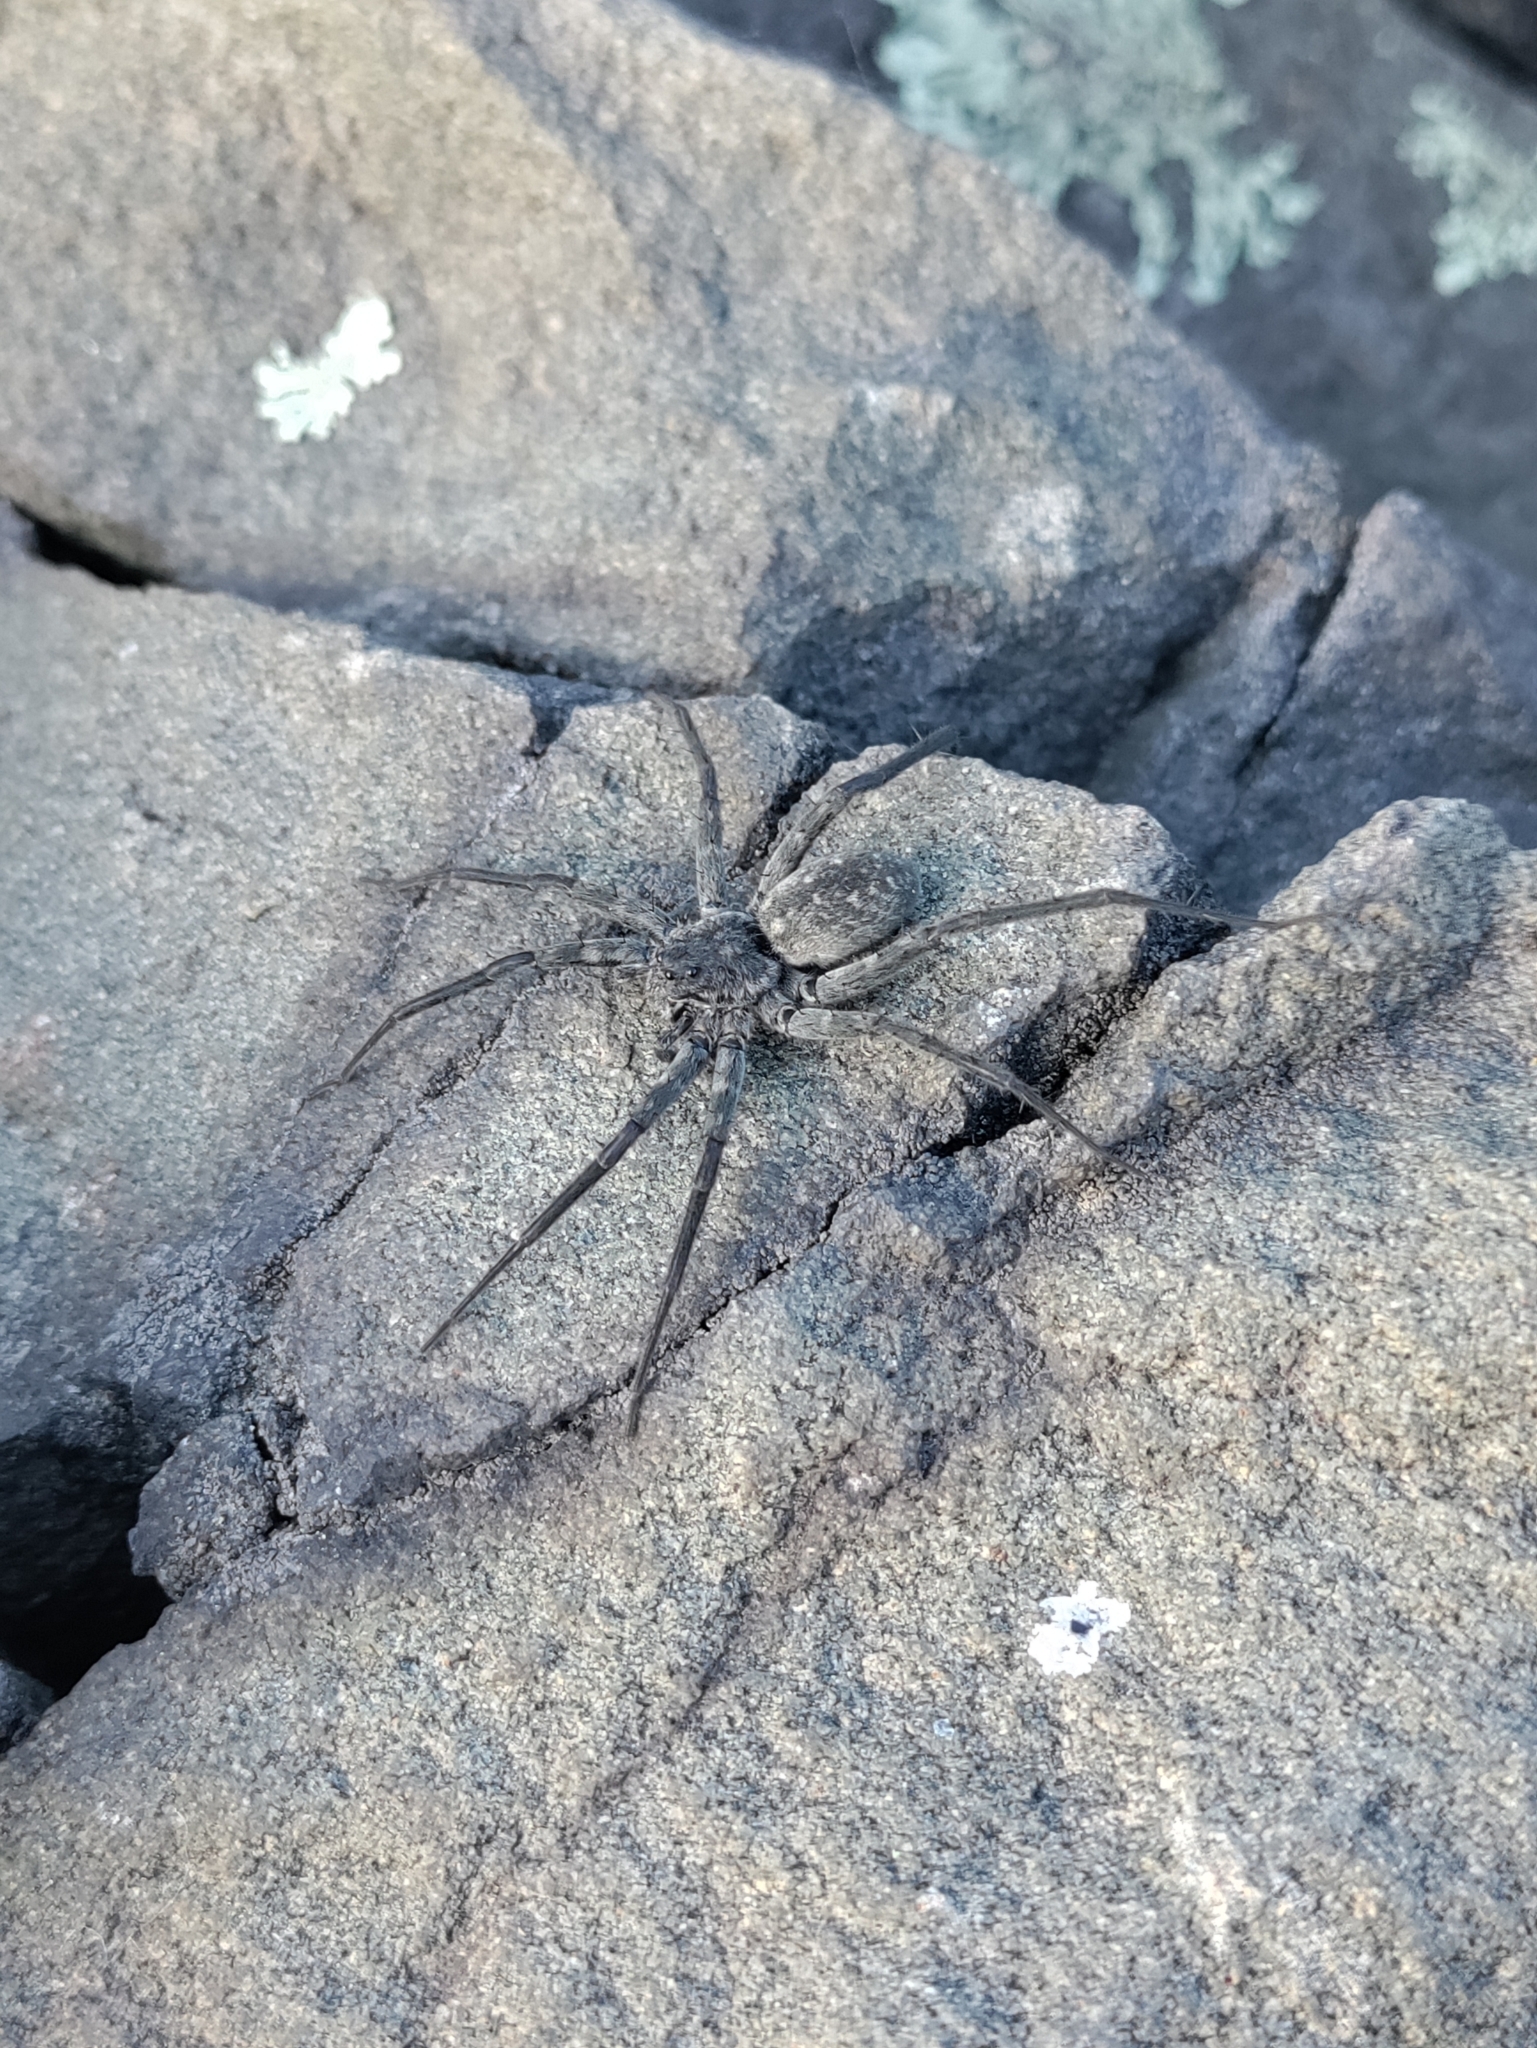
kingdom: Animalia
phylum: Arthropoda
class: Arachnida
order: Araneae
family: Lycosidae
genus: Pardosa
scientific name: Pardosa lapidicina
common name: Stone spider
